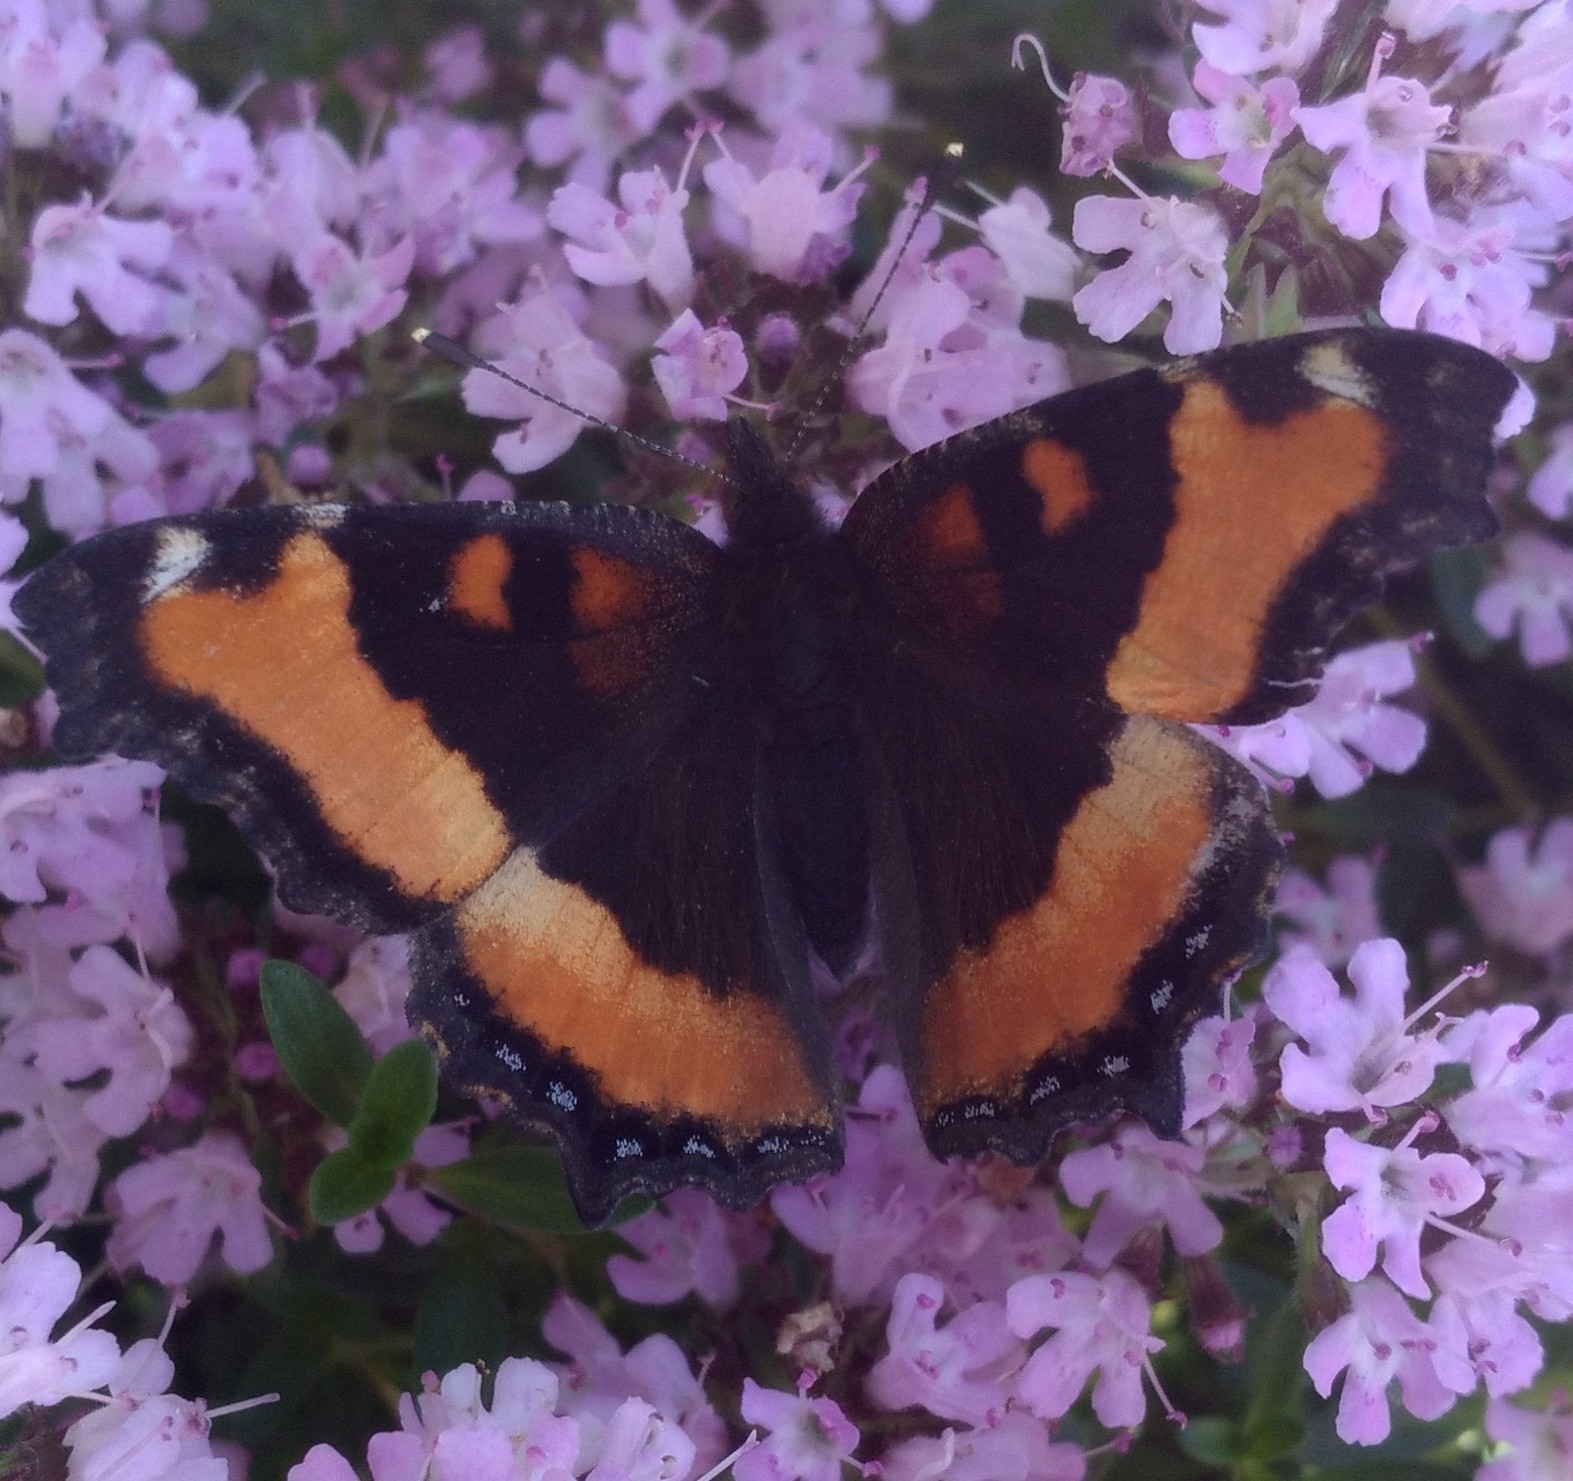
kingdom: Animalia
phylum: Arthropoda
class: Insecta
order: Lepidoptera
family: Nymphalidae
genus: Aglais
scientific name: Aglais milberti
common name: Milbert's tortoiseshell
